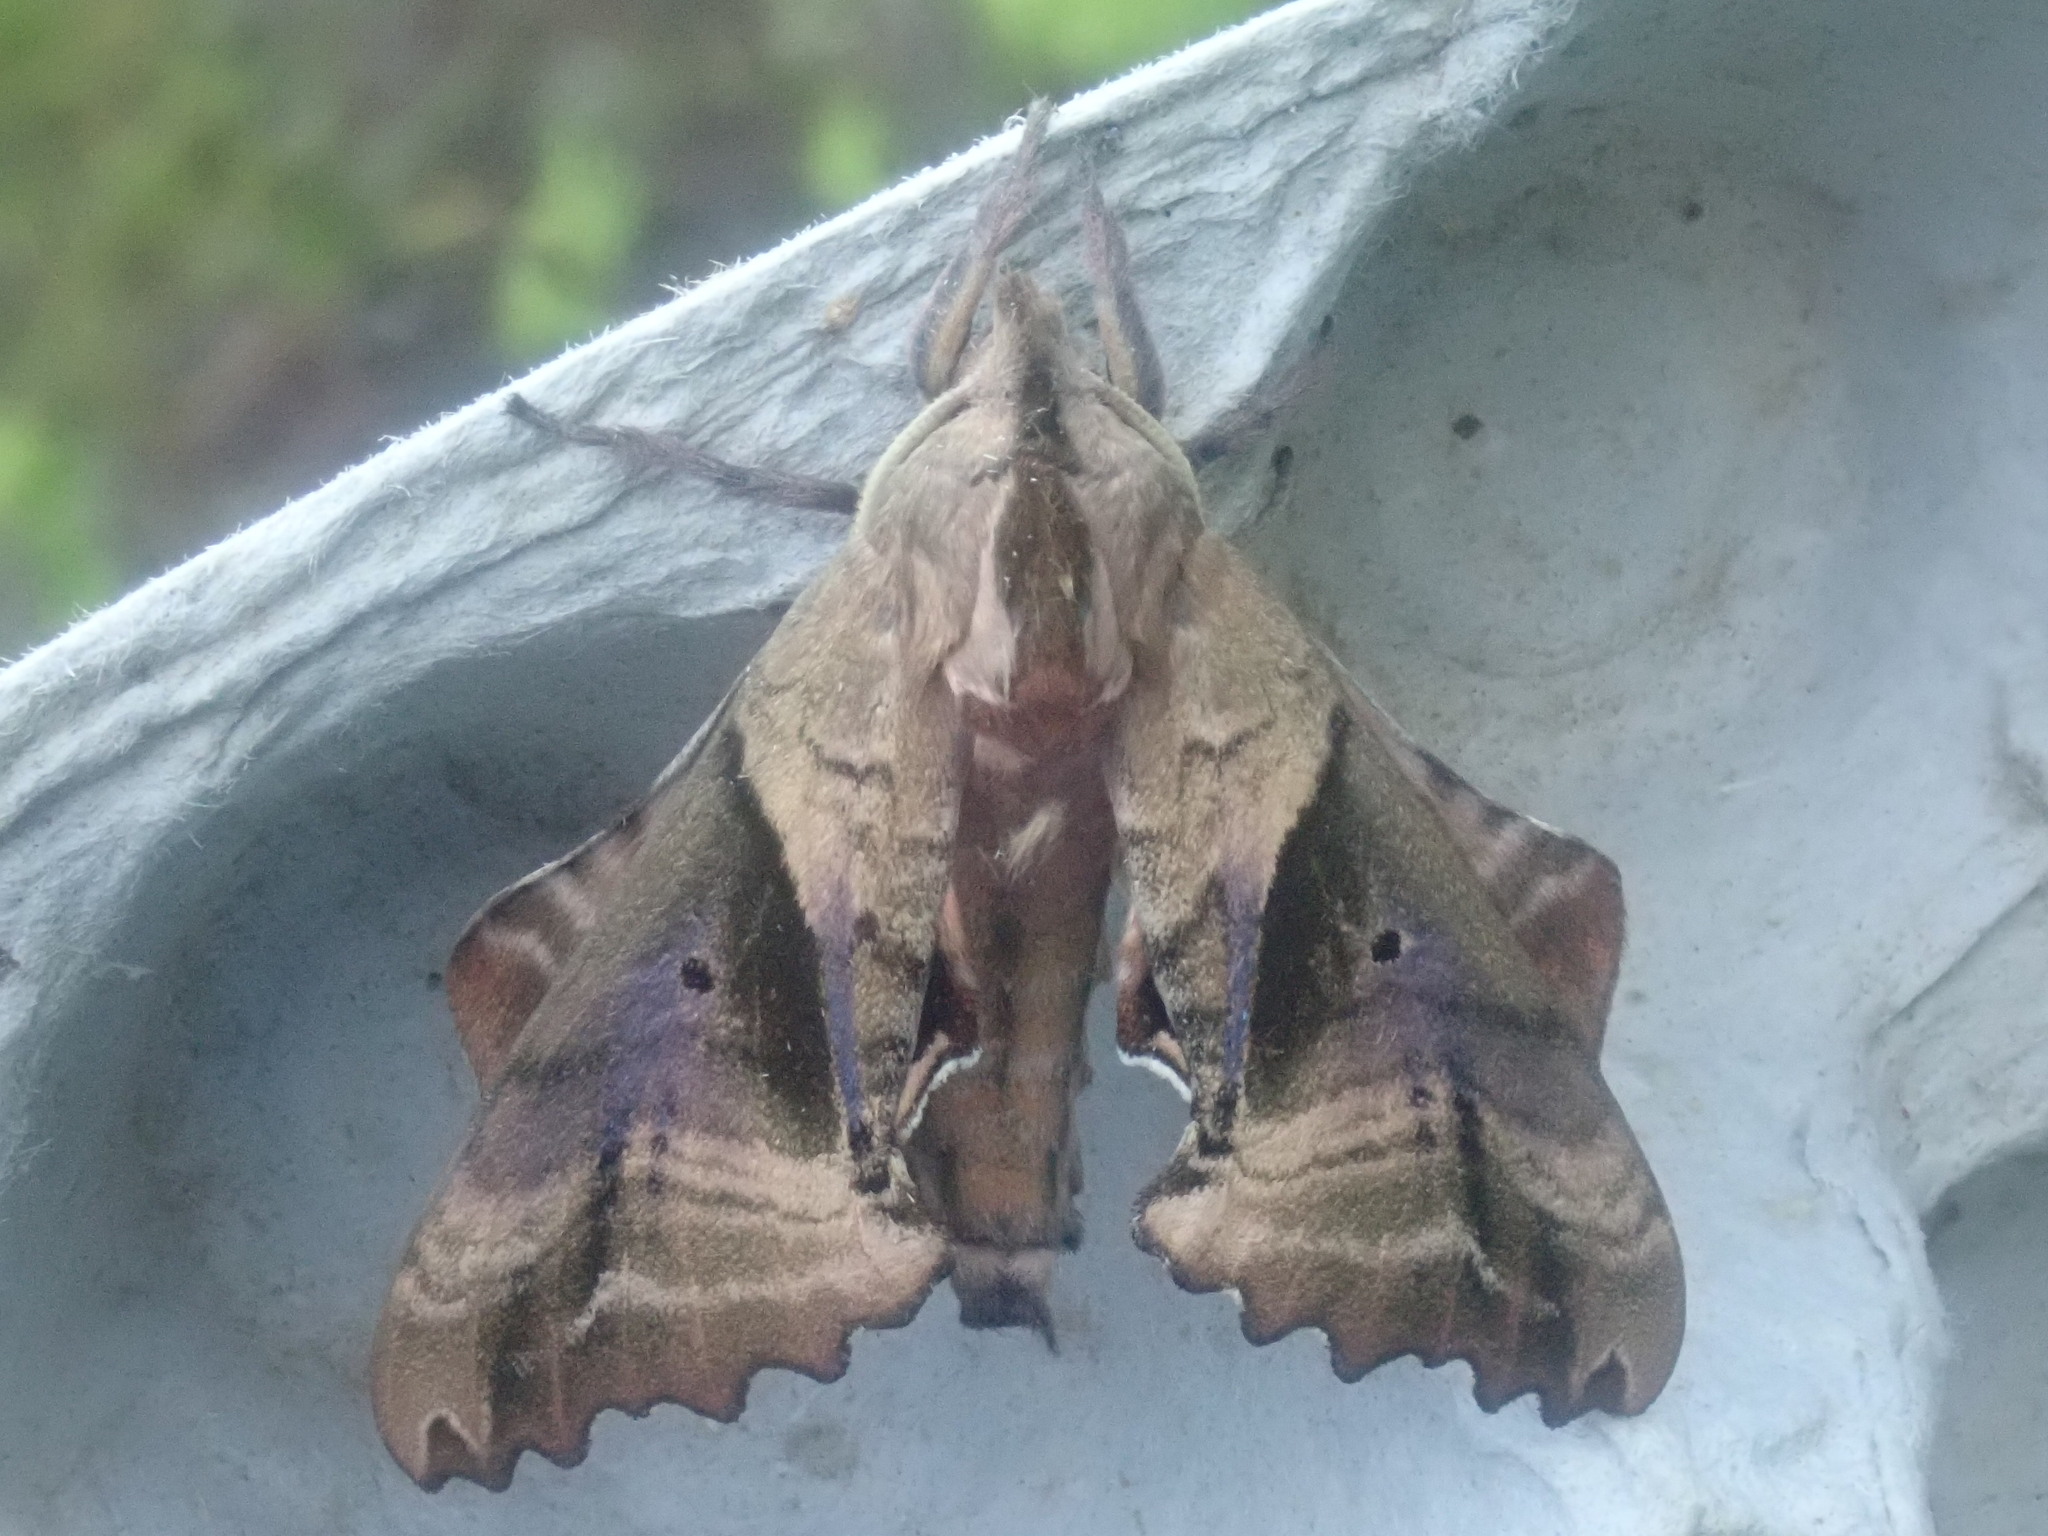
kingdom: Animalia
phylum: Arthropoda
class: Insecta
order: Lepidoptera
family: Sphingidae
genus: Paonias
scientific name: Paonias excaecata
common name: Blind-eyed sphinx
